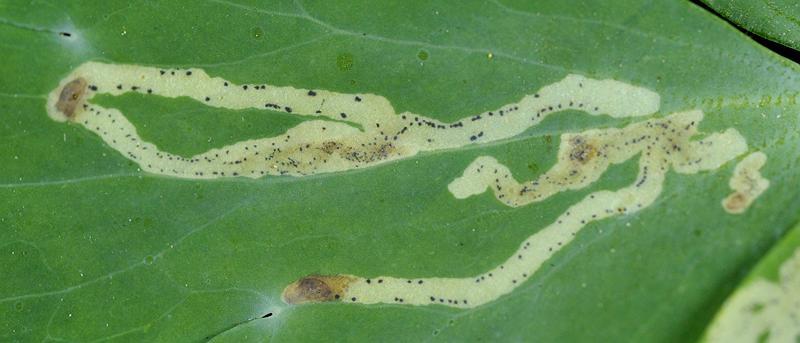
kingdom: Animalia
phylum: Arthropoda
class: Insecta
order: Diptera
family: Agromyzidae
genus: Phytomyza
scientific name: Phytomyza
